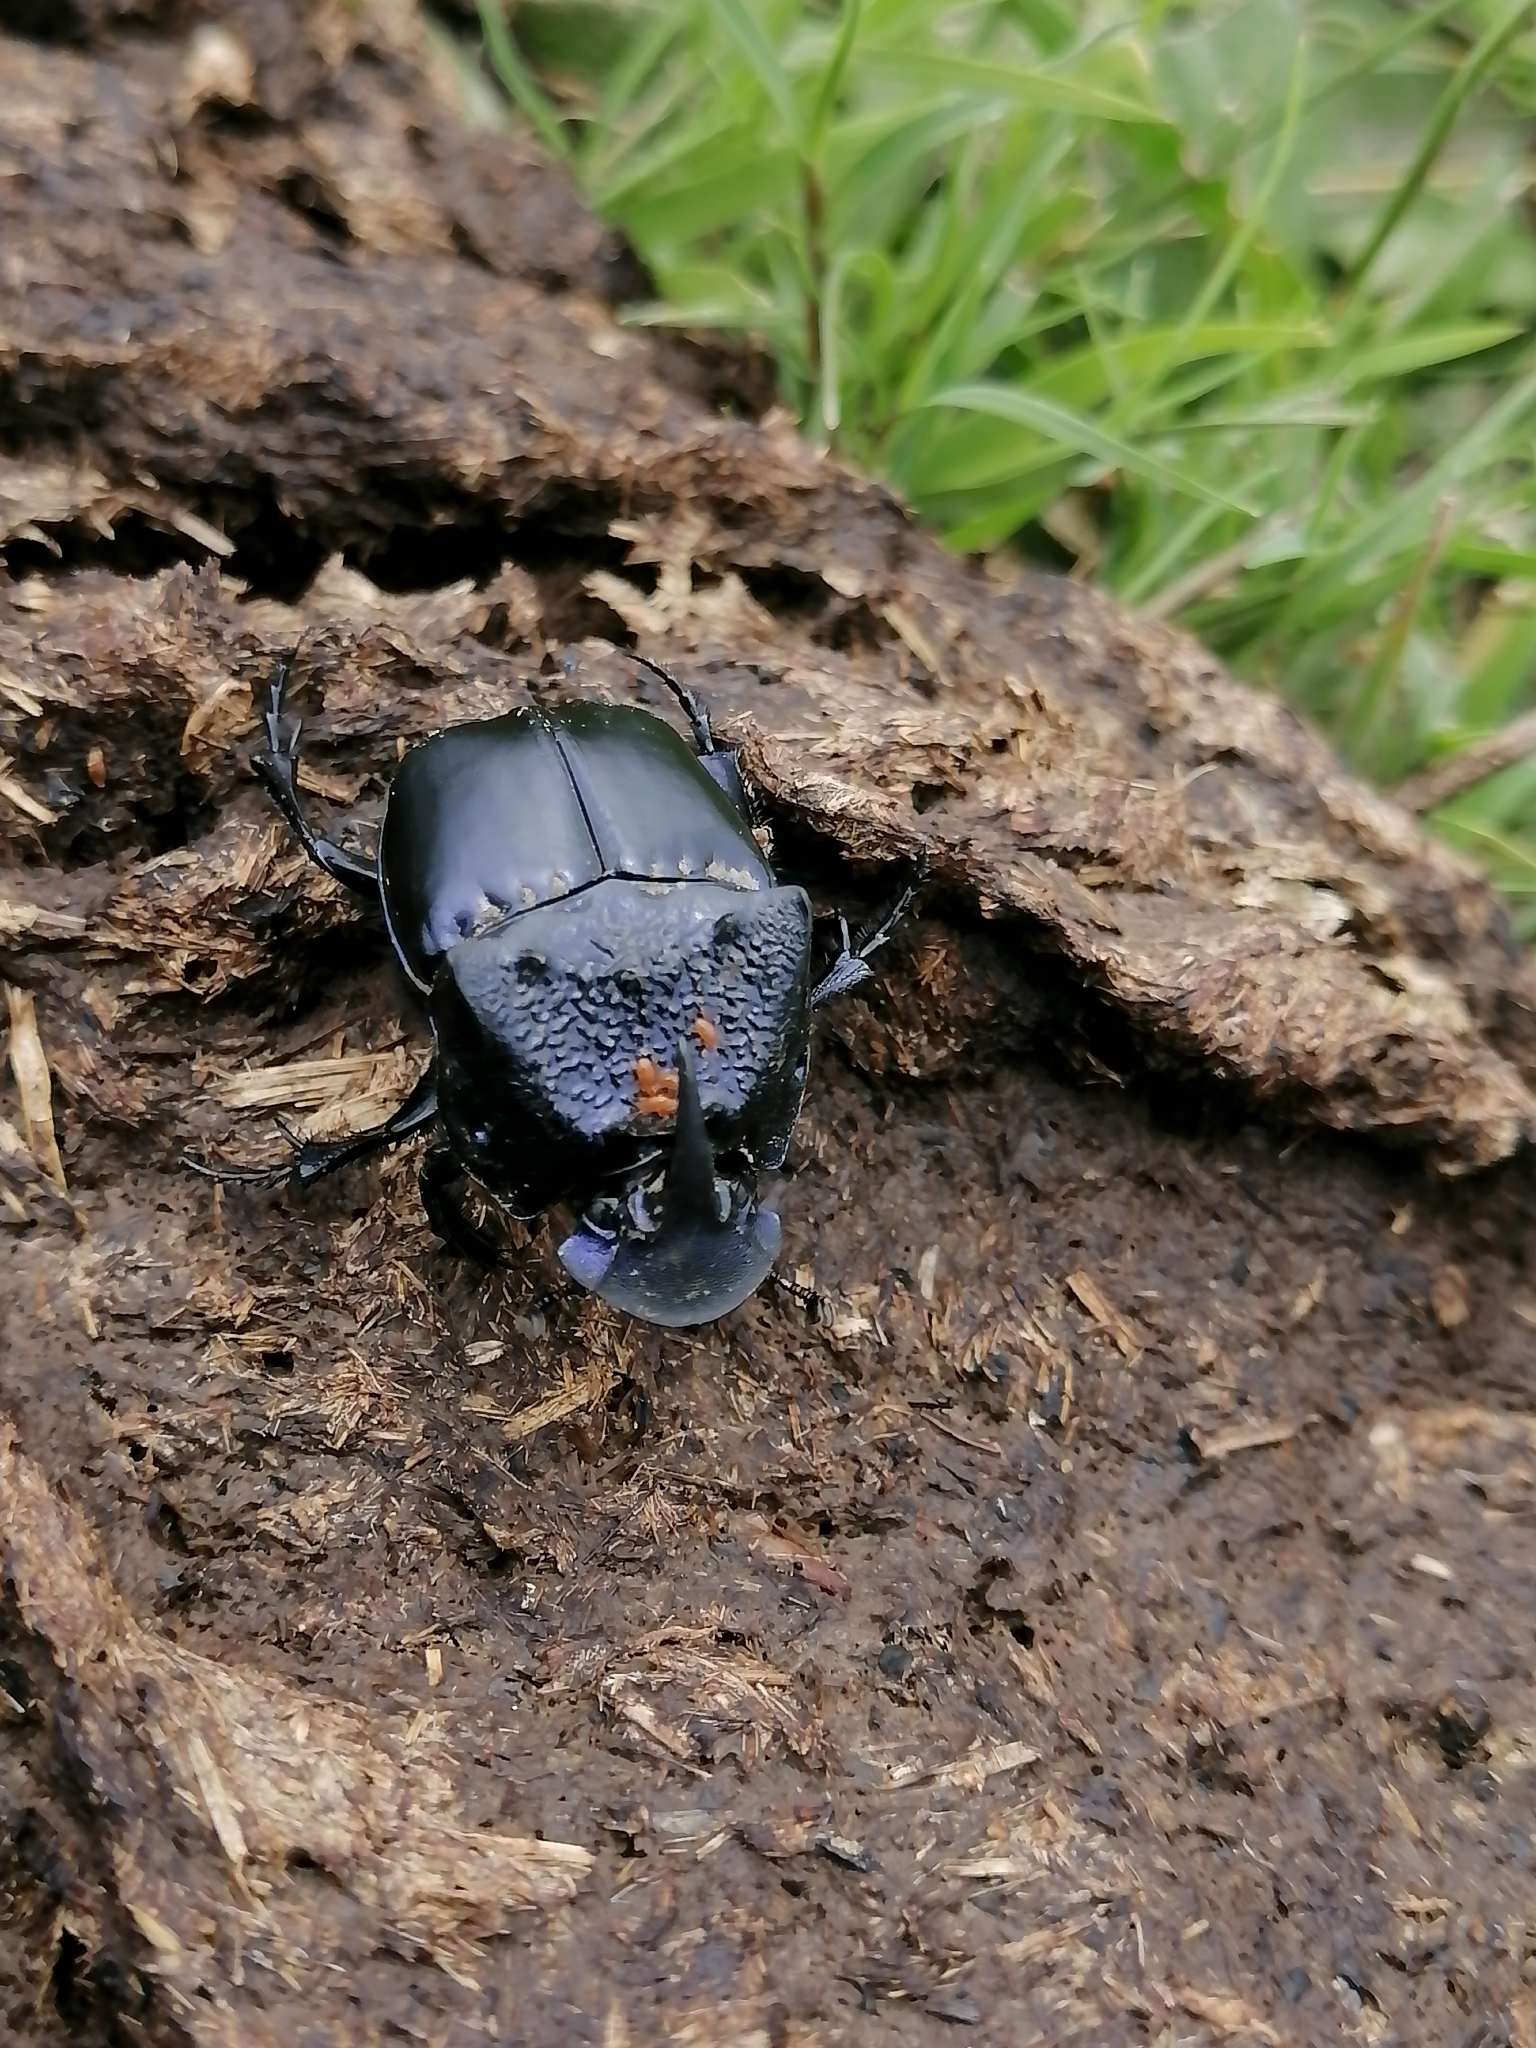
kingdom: Animalia
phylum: Arthropoda
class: Insecta
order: Coleoptera
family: Scarabaeidae
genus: Phanaeus
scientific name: Phanaeus quadridens
